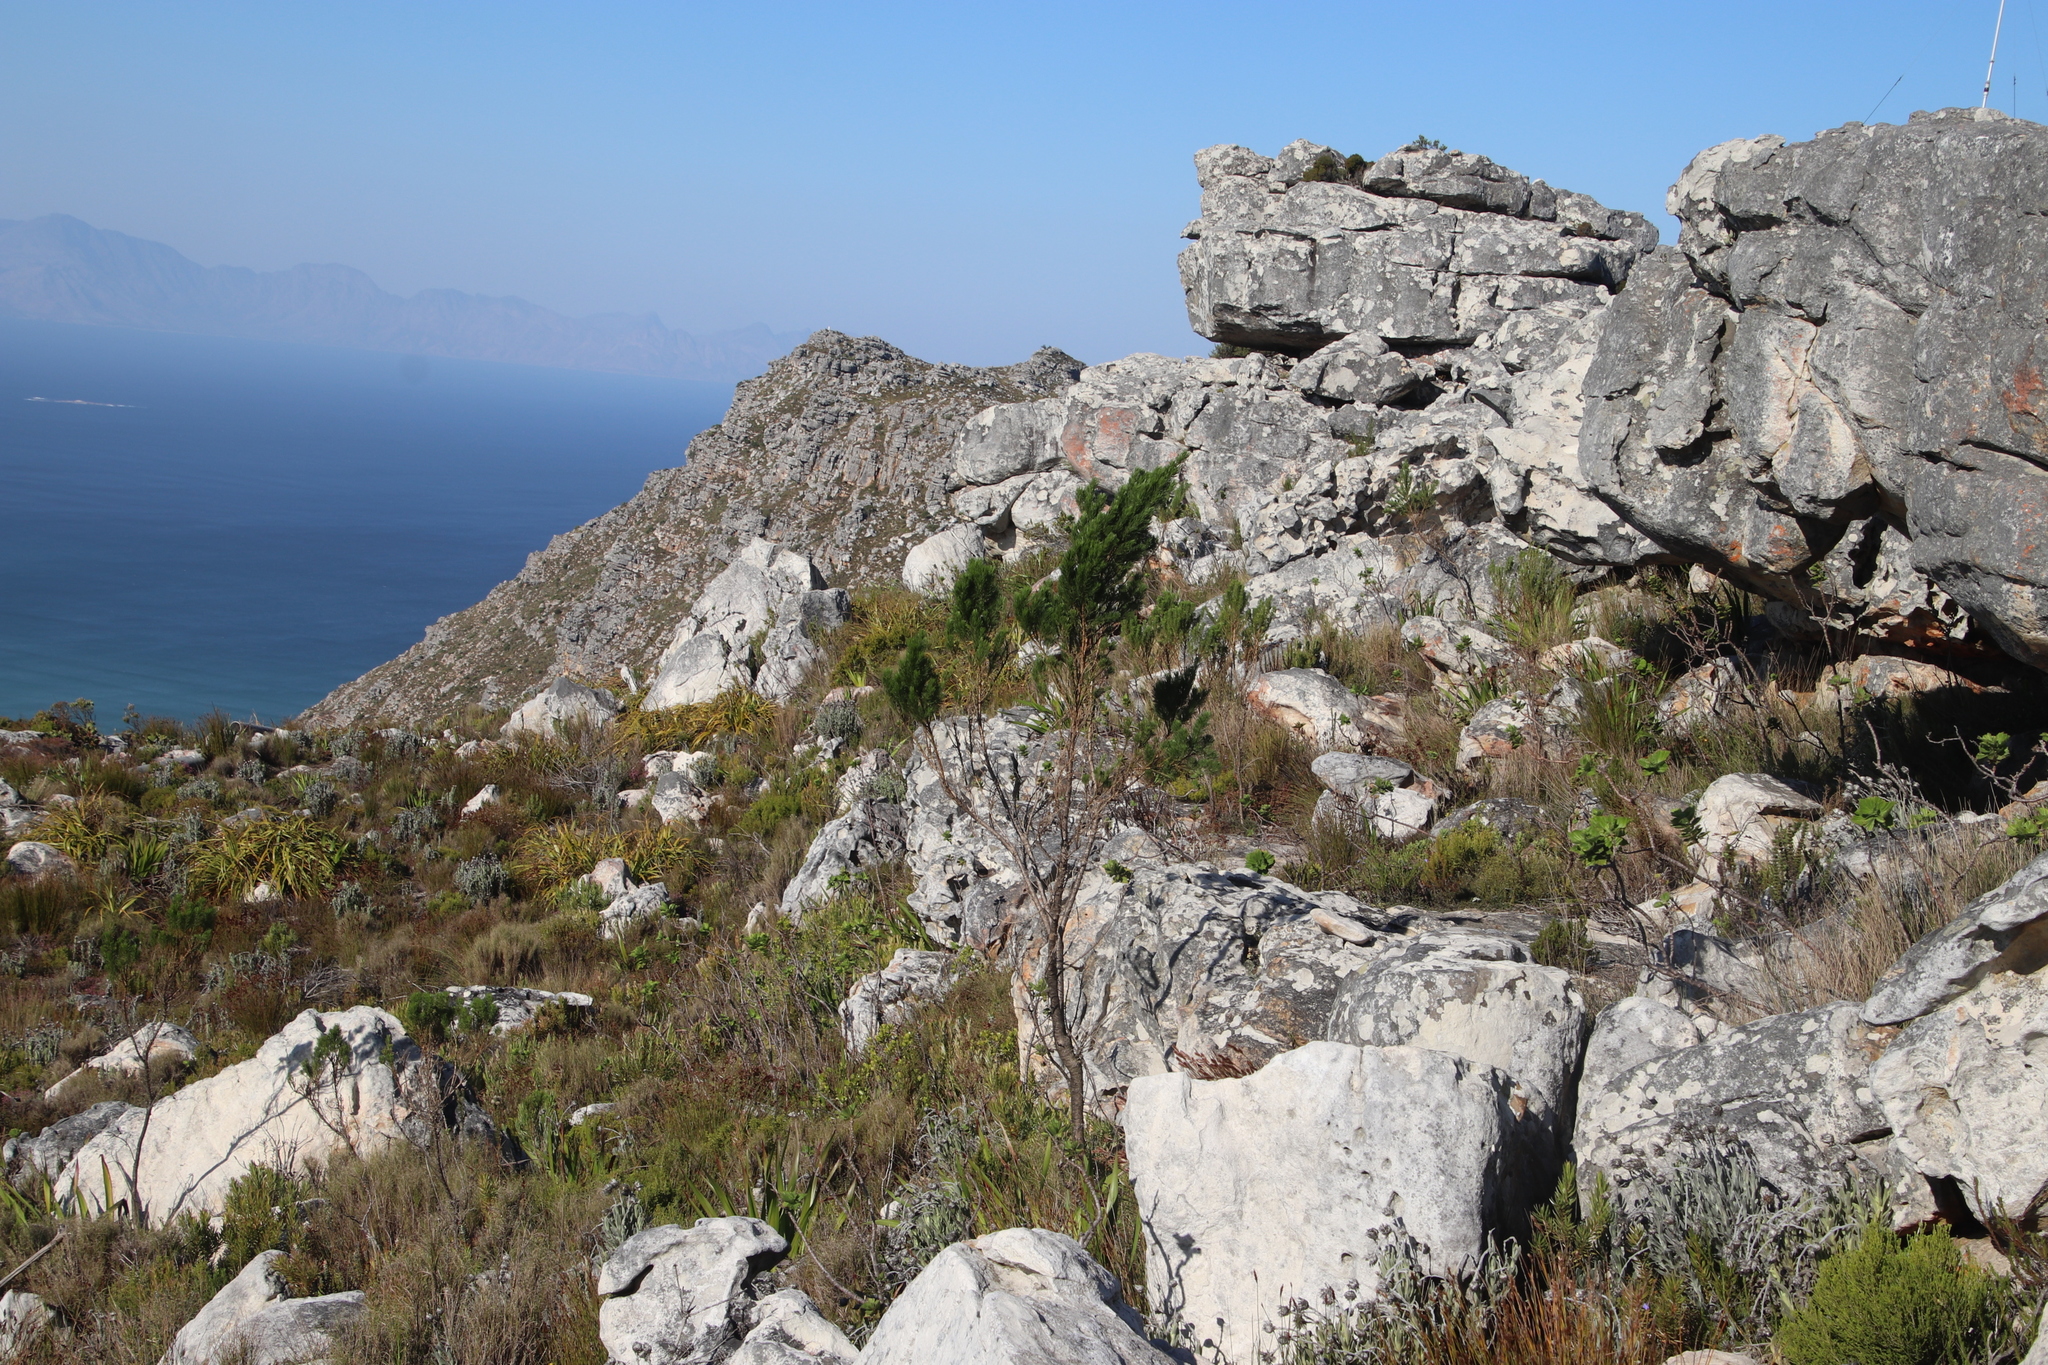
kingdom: Plantae
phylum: Tracheophyta
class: Magnoliopsida
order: Fabales
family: Fabaceae
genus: Psoralea
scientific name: Psoralea pinnata
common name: African scurfpea
